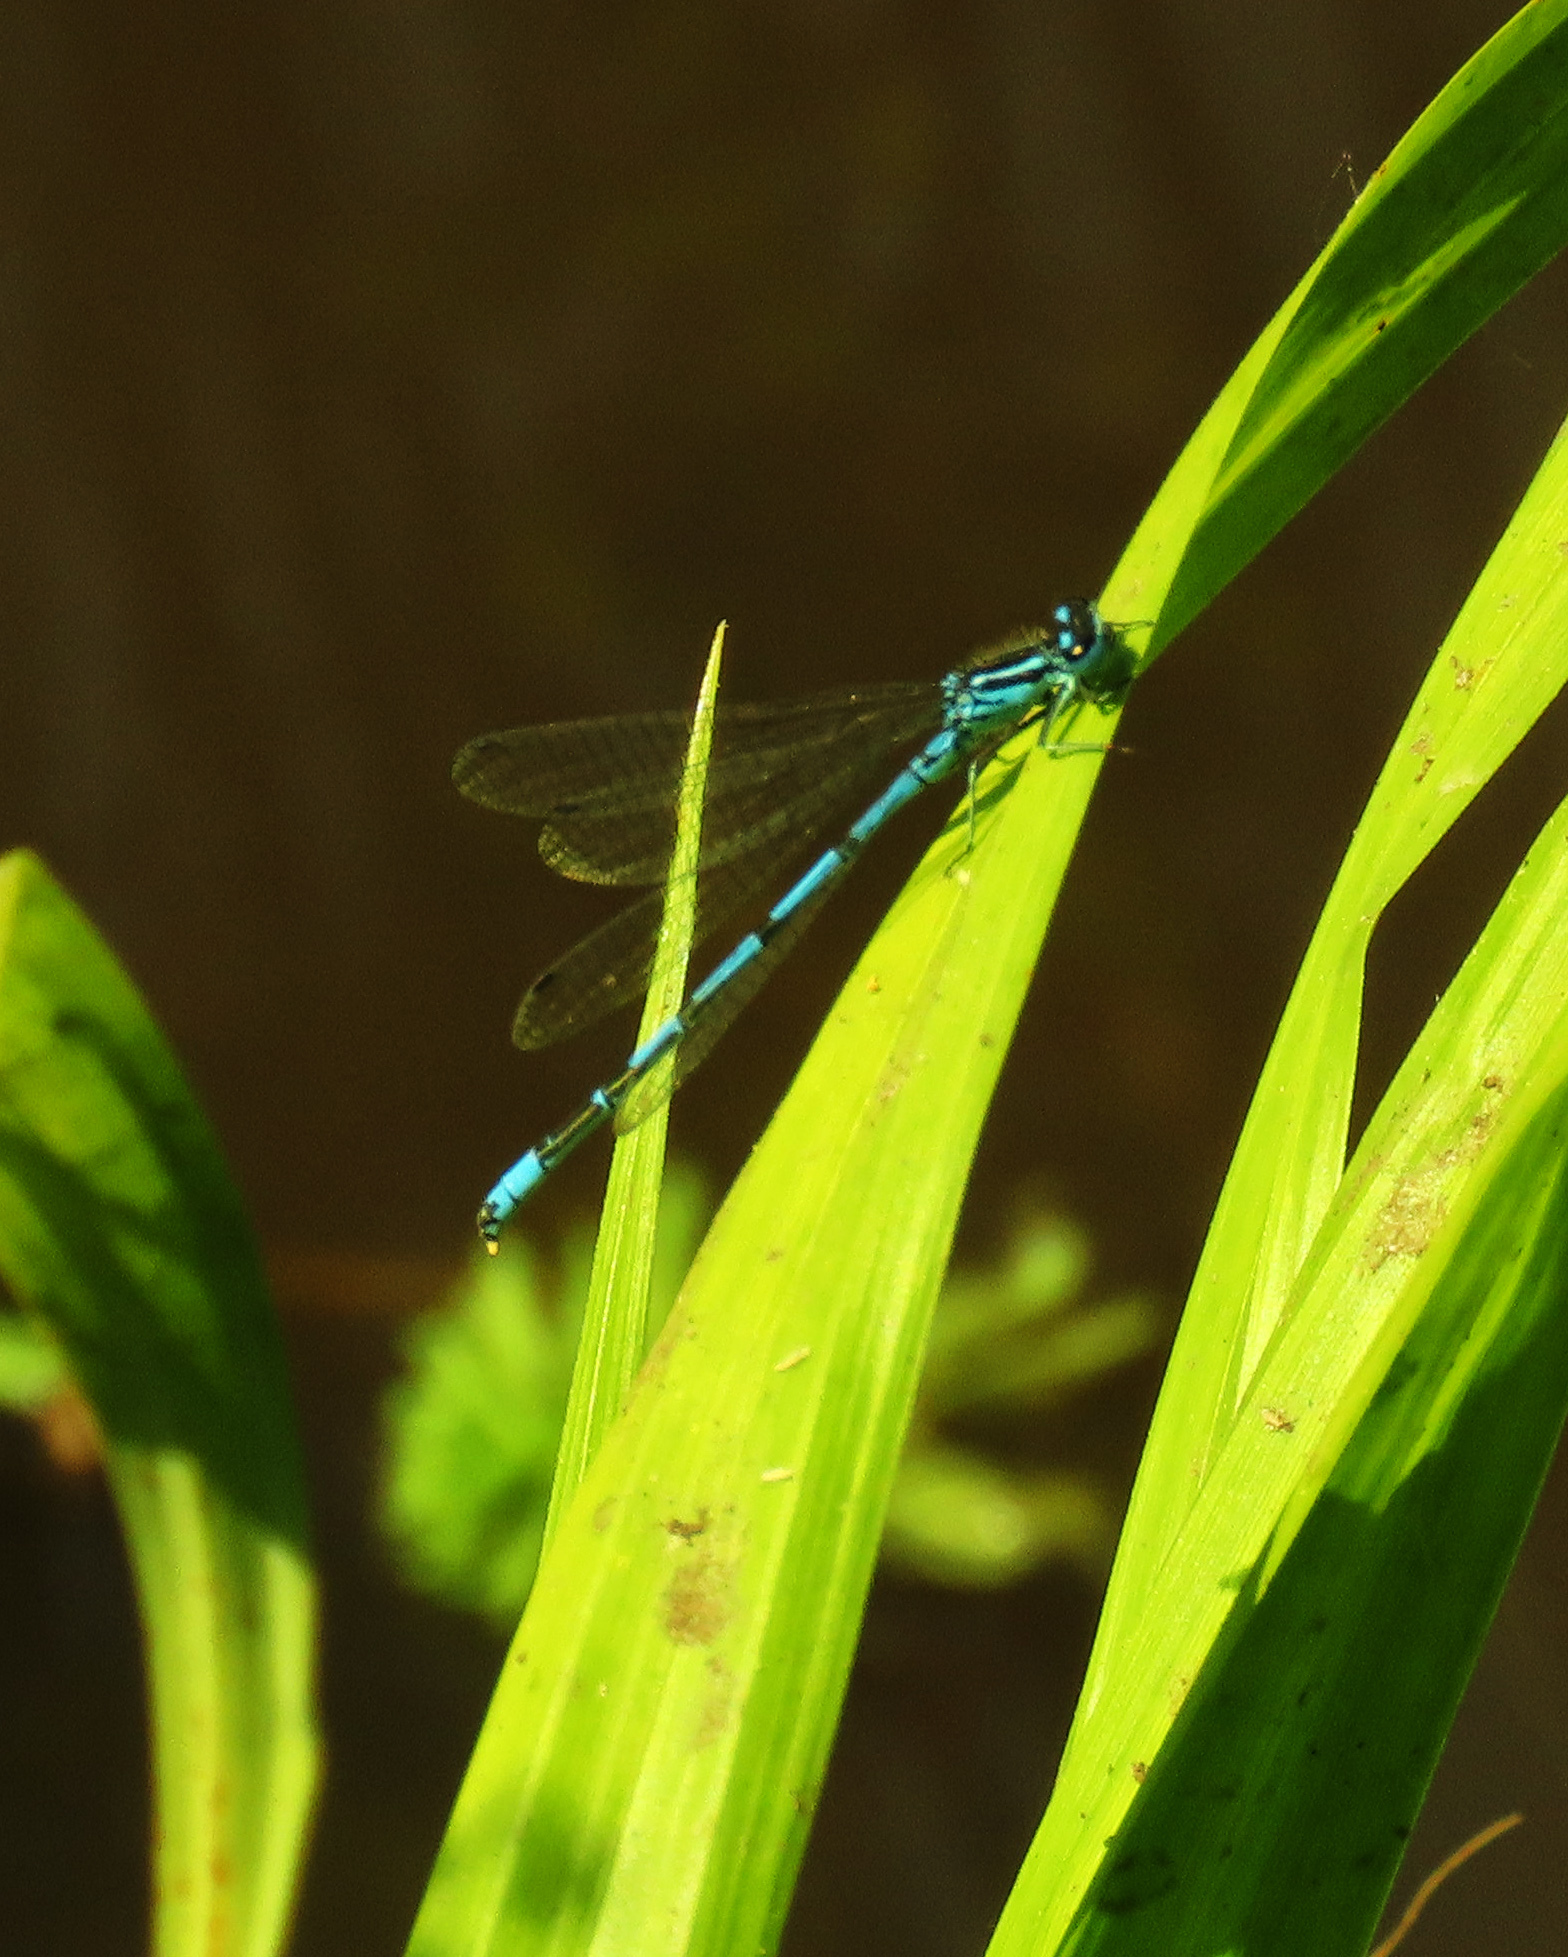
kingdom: Animalia
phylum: Arthropoda
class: Insecta
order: Odonata
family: Coenagrionidae
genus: Coenagrion
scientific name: Coenagrion puella
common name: Azure damselfly
